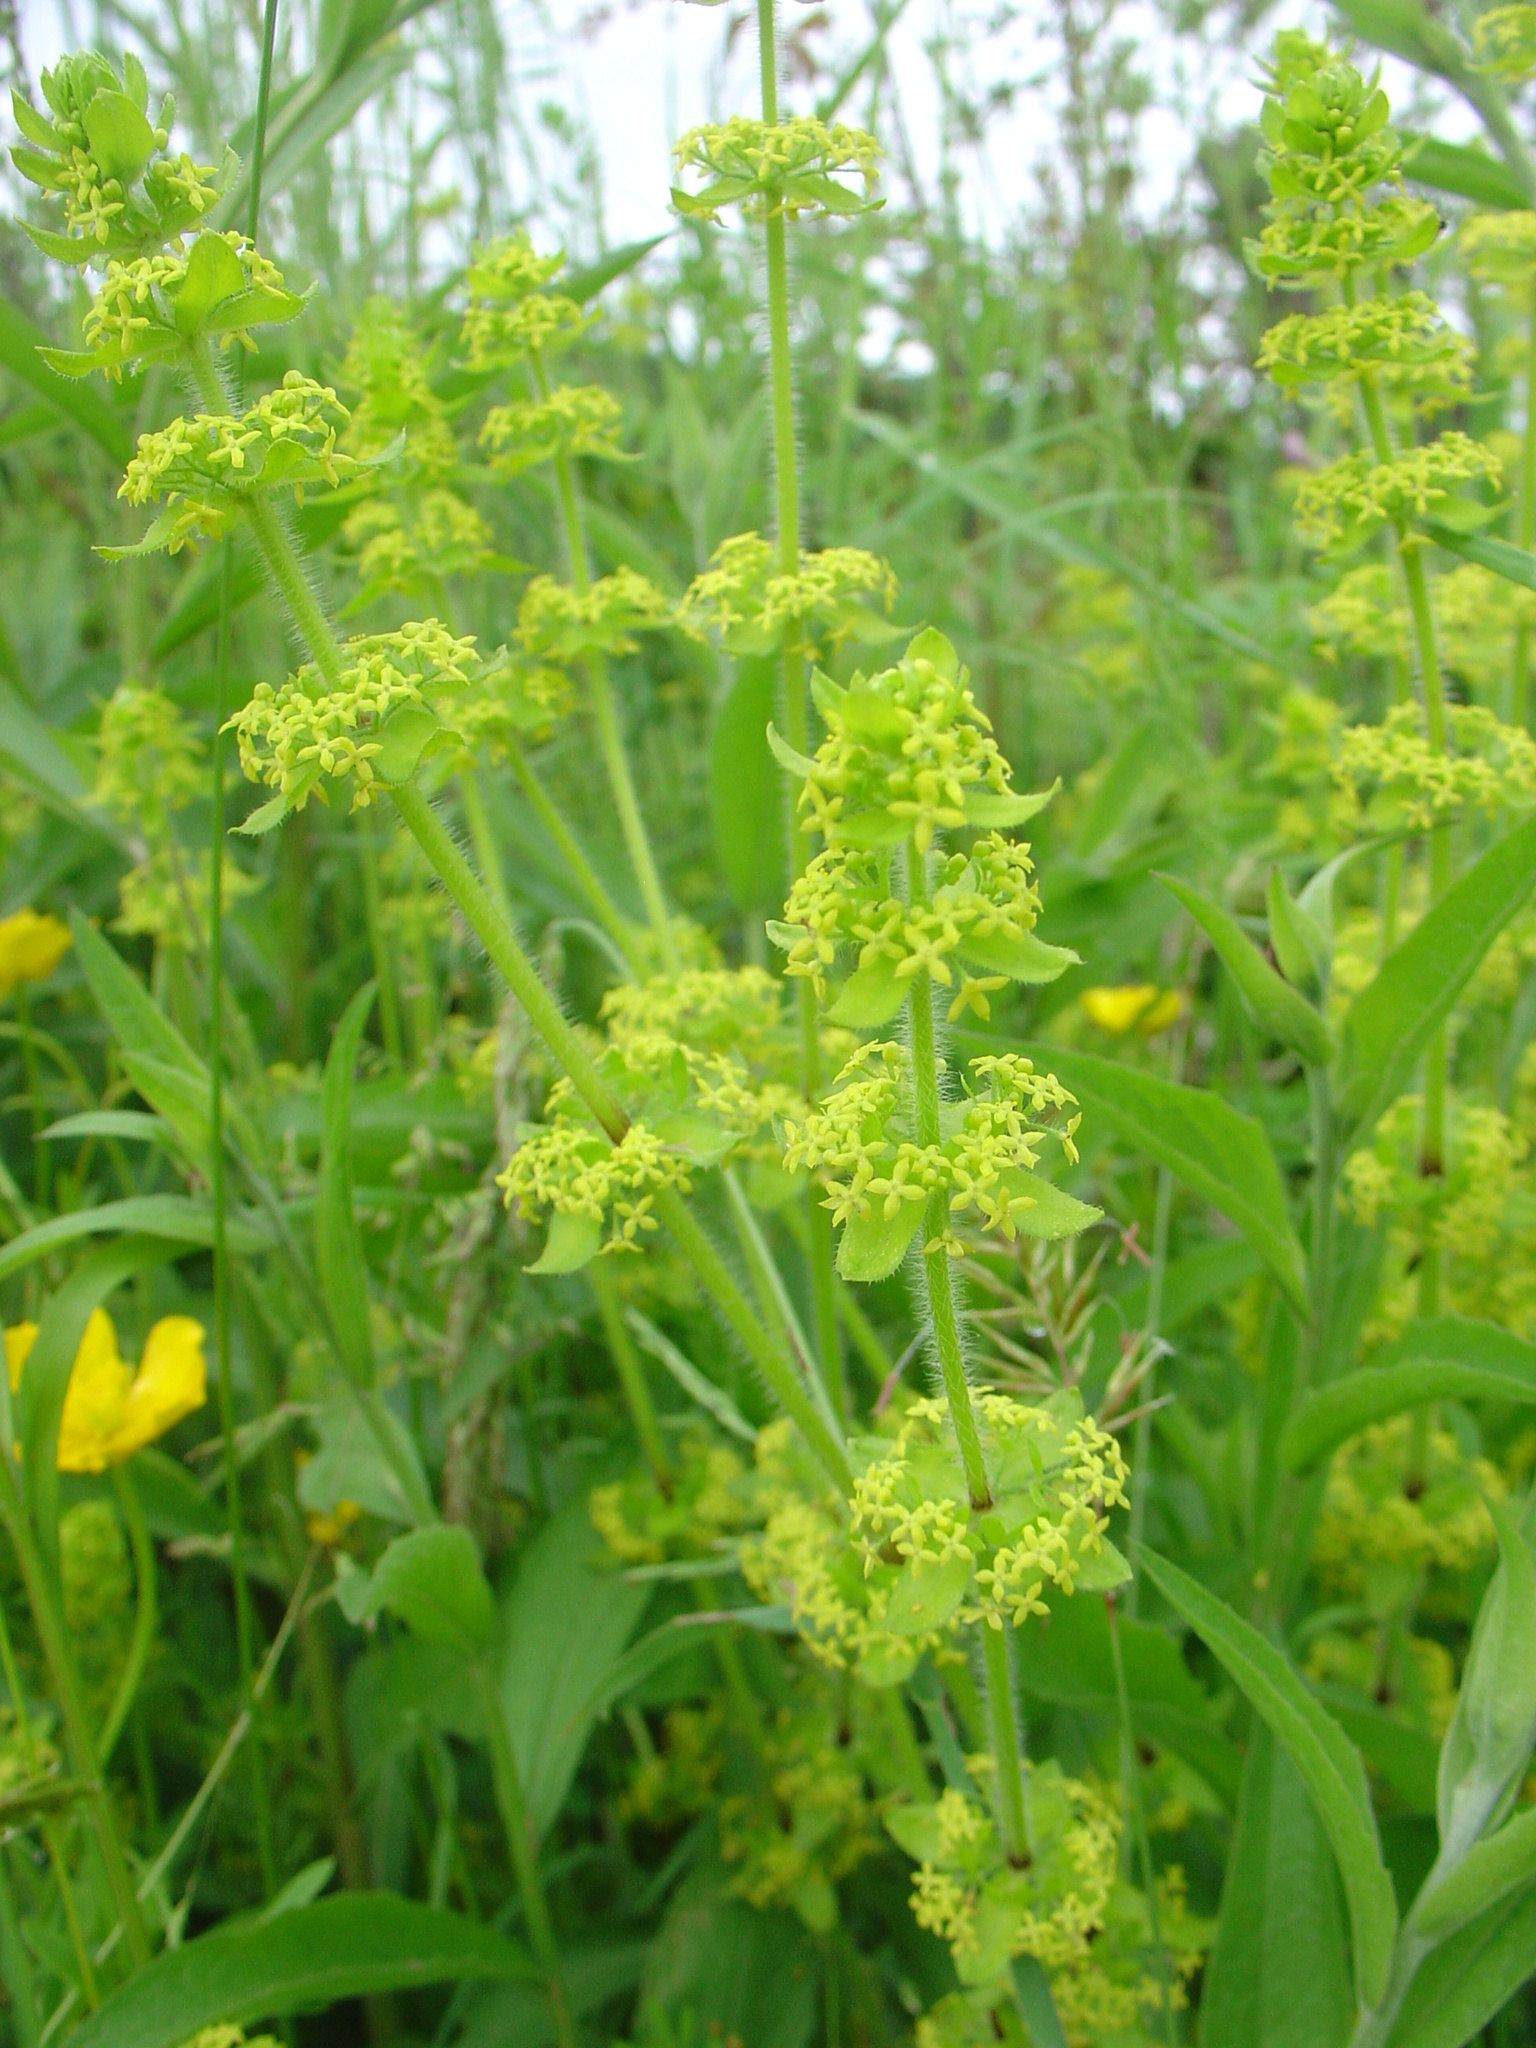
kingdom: Plantae
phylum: Tracheophyta
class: Magnoliopsida
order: Gentianales
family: Rubiaceae
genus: Cruciata
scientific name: Cruciata laevipes
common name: Crosswort
